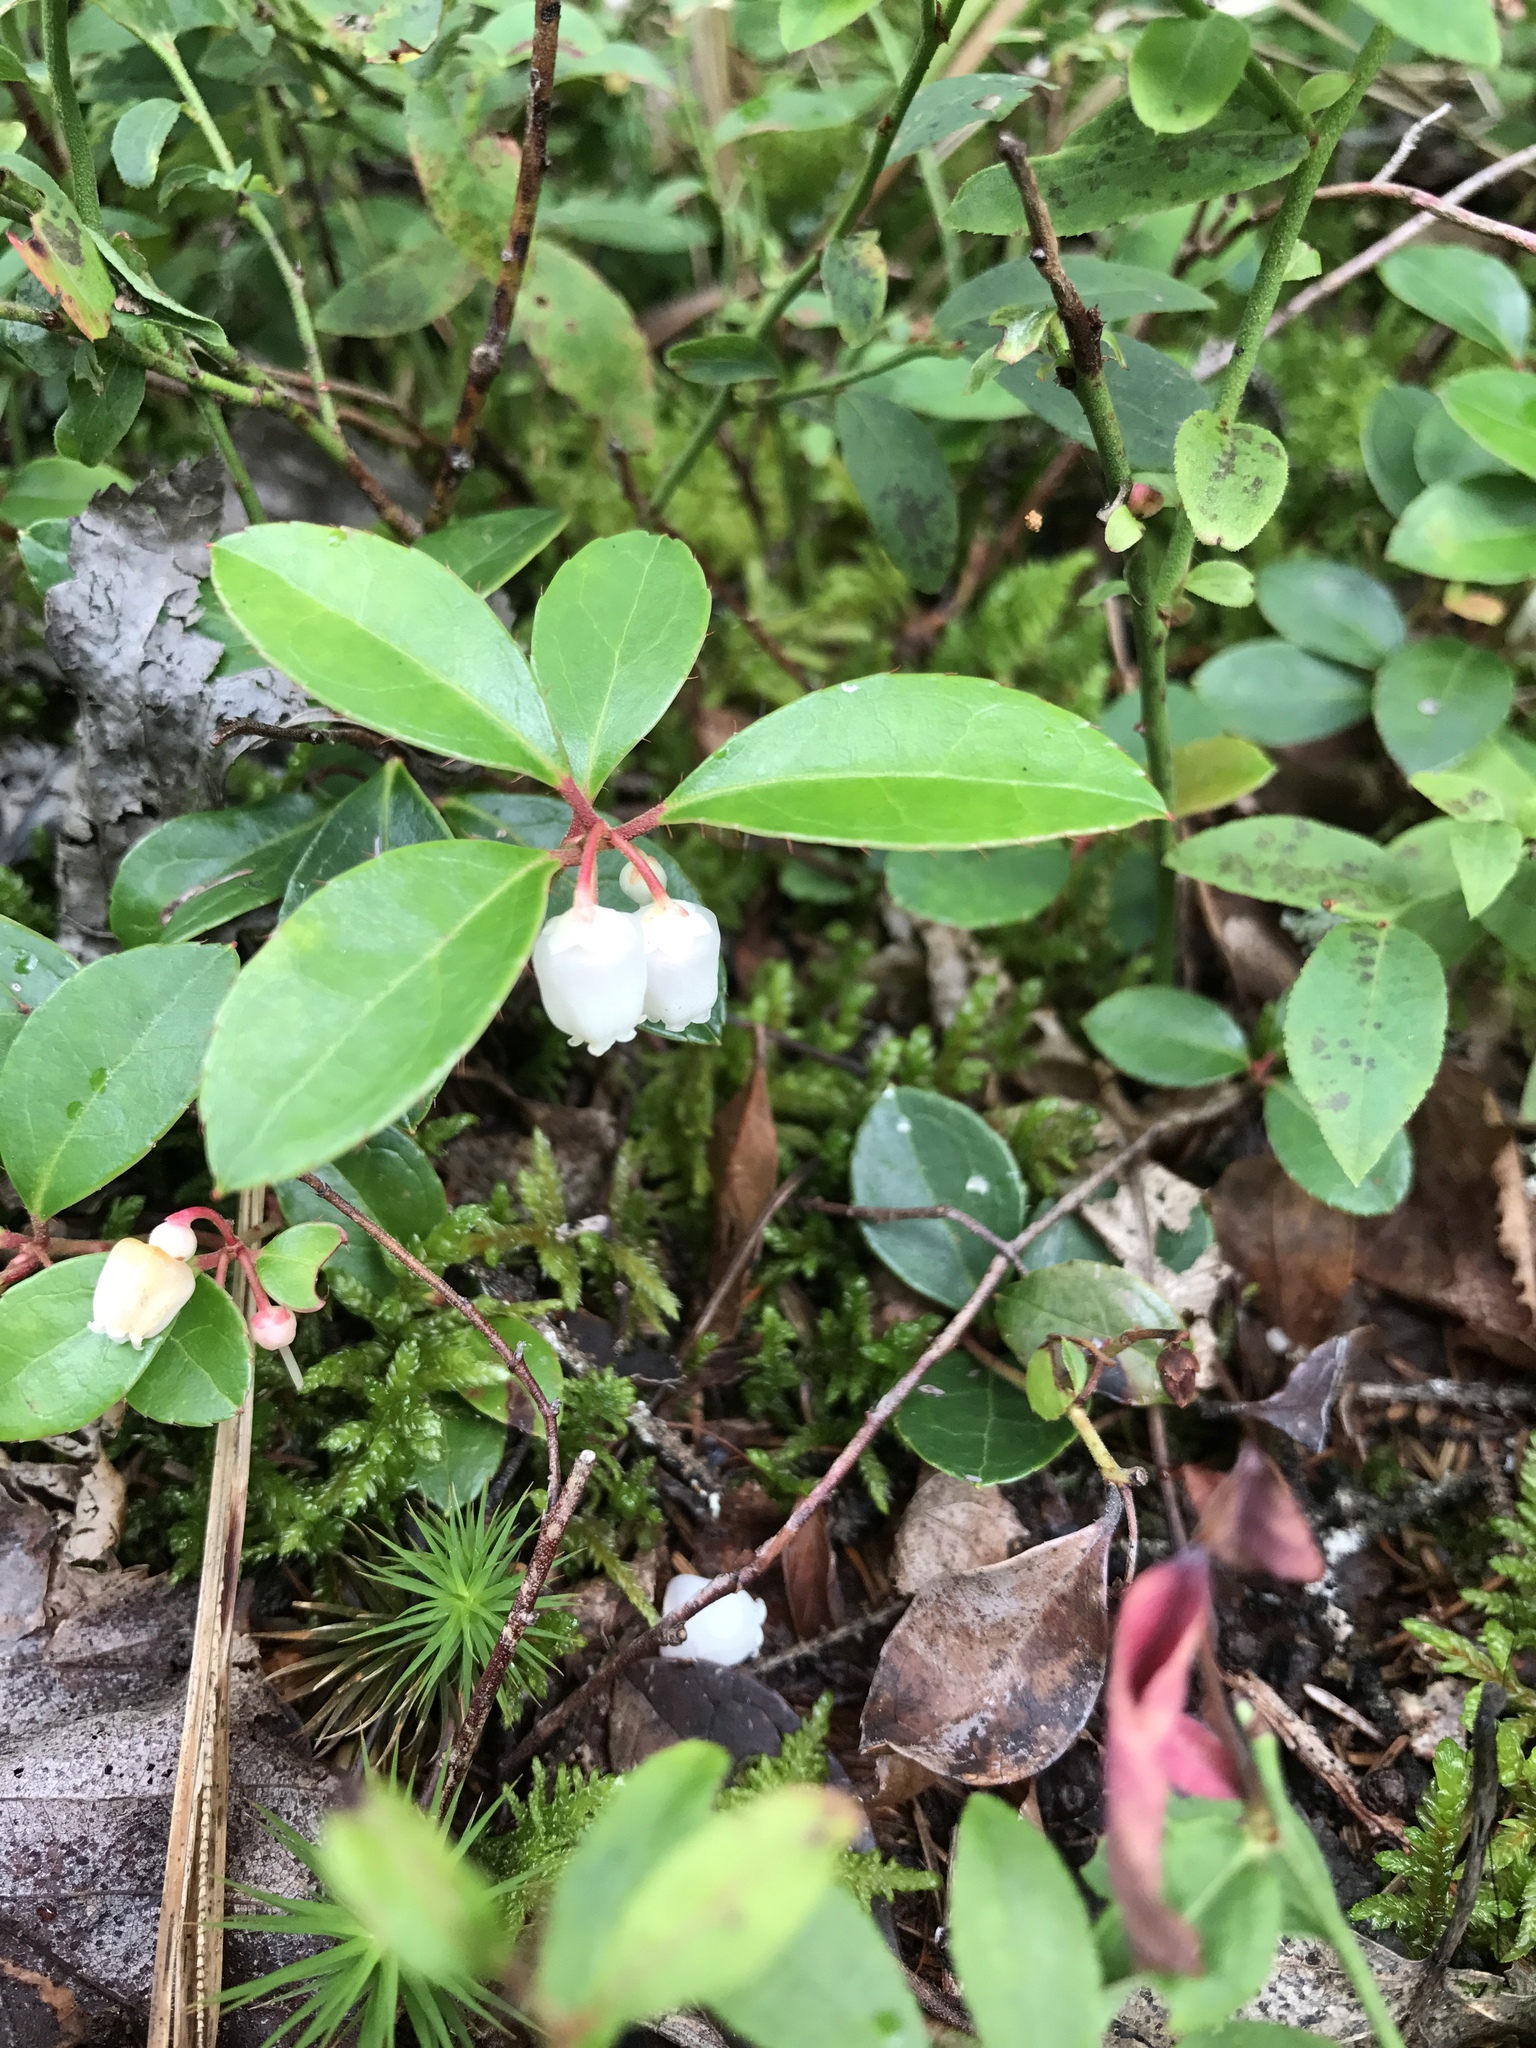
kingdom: Plantae
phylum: Tracheophyta
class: Magnoliopsida
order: Ericales
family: Ericaceae
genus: Gaultheria
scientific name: Gaultheria procumbens
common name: Checkerberry
